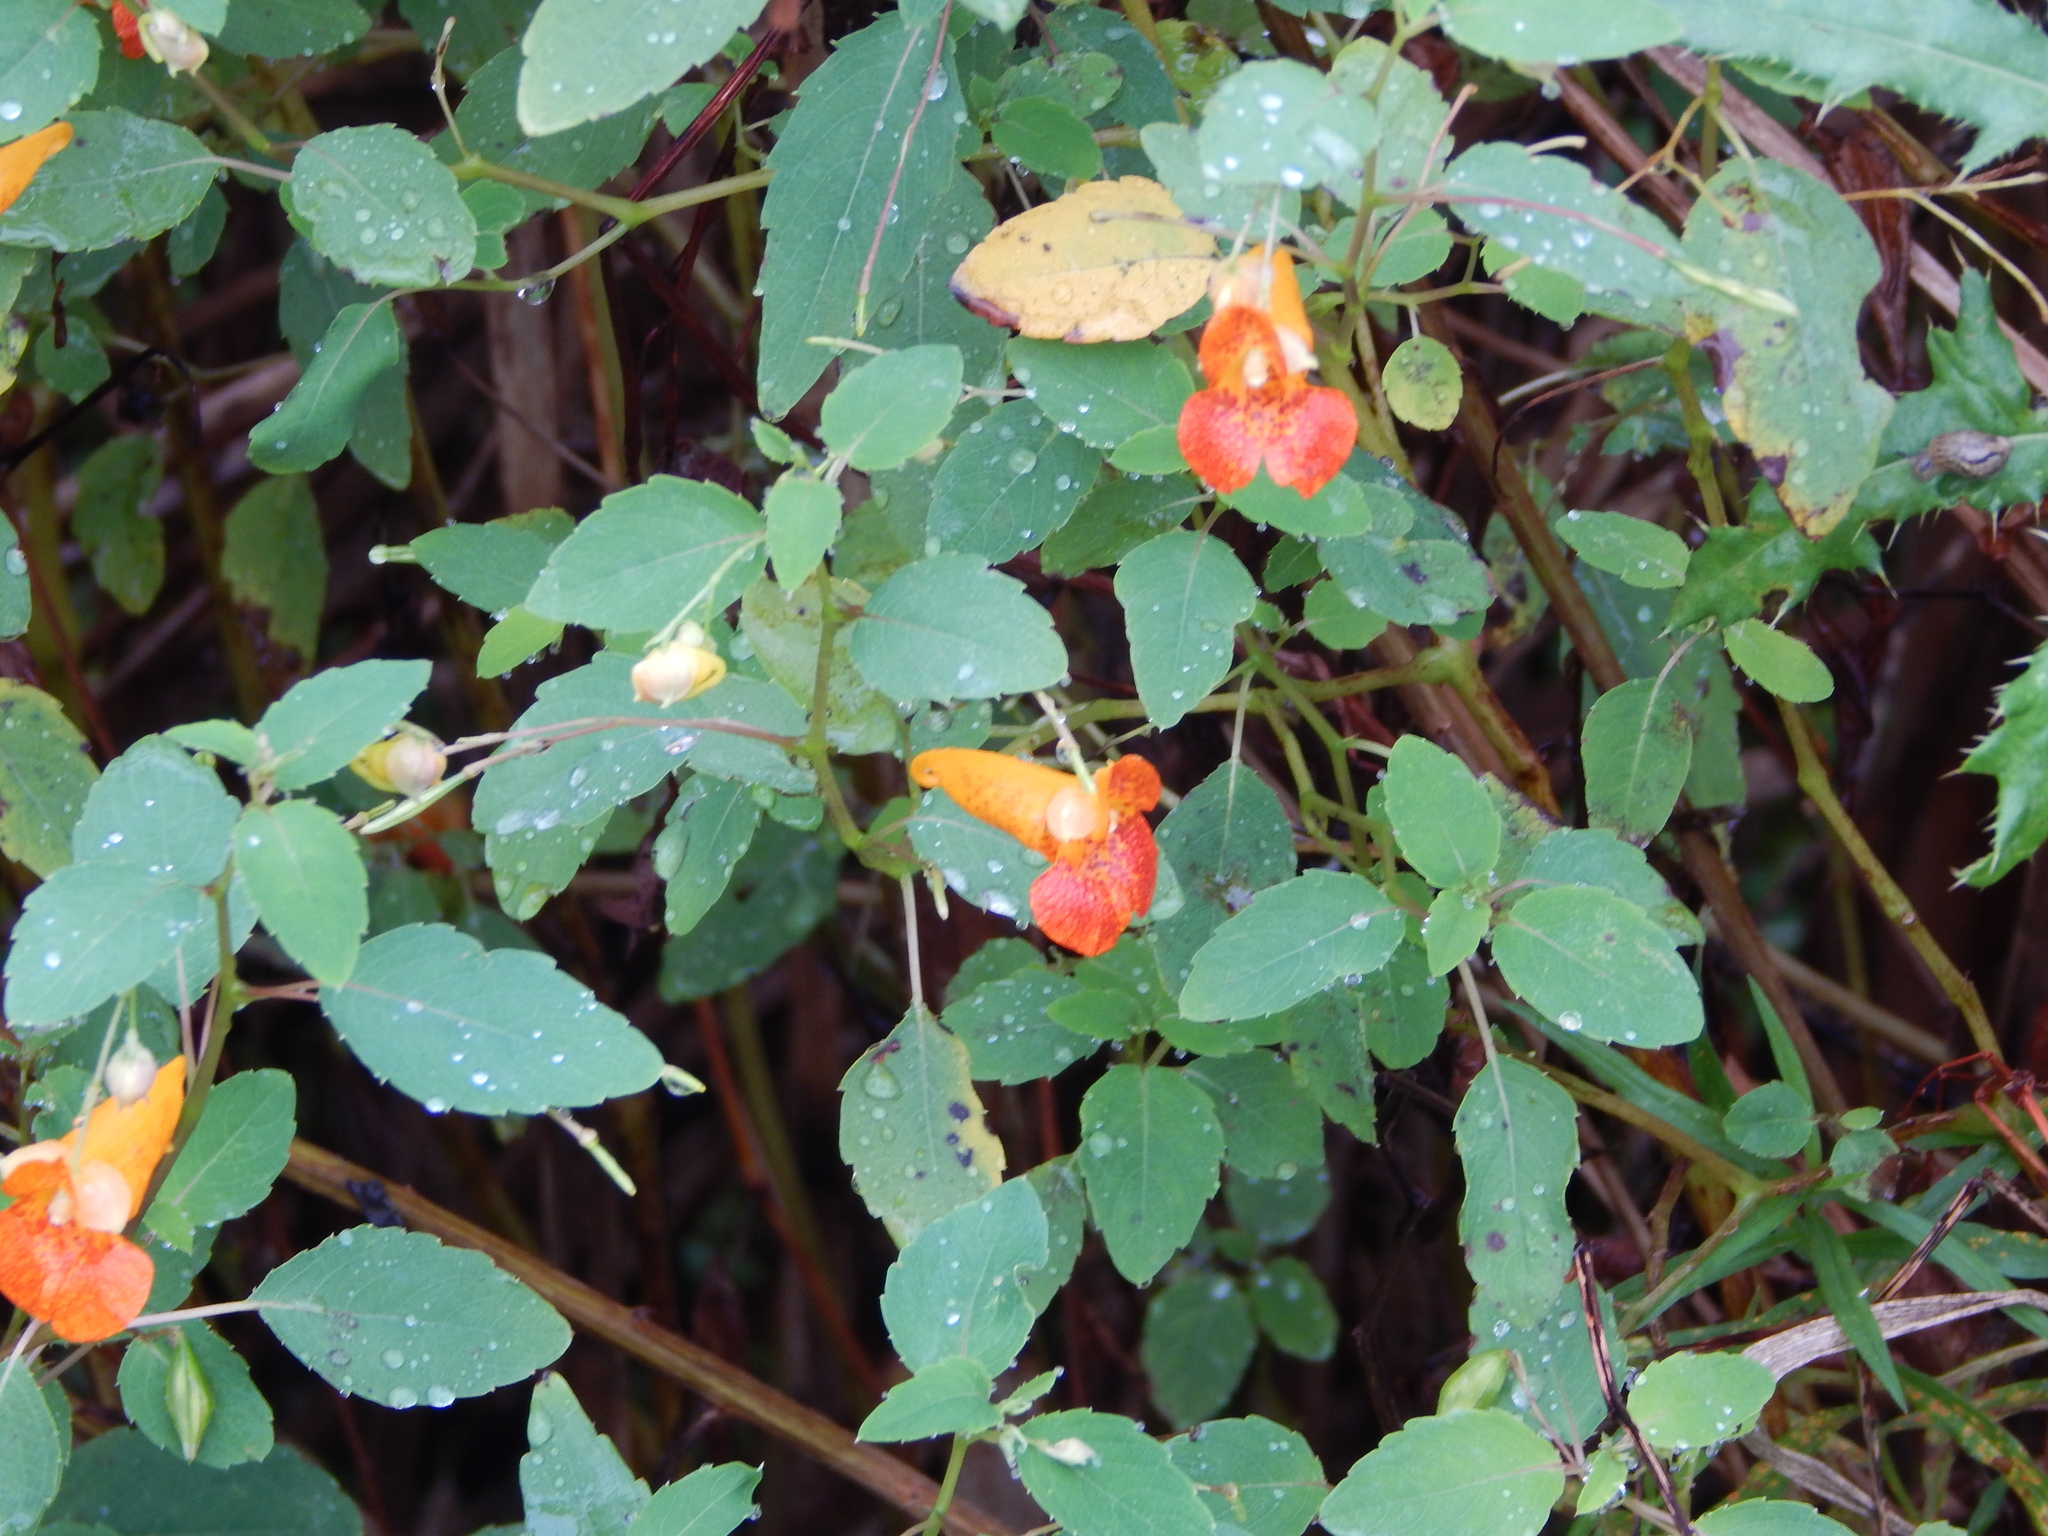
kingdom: Plantae
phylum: Tracheophyta
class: Magnoliopsida
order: Ericales
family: Balsaminaceae
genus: Impatiens
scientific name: Impatiens capensis
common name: Orange balsam
